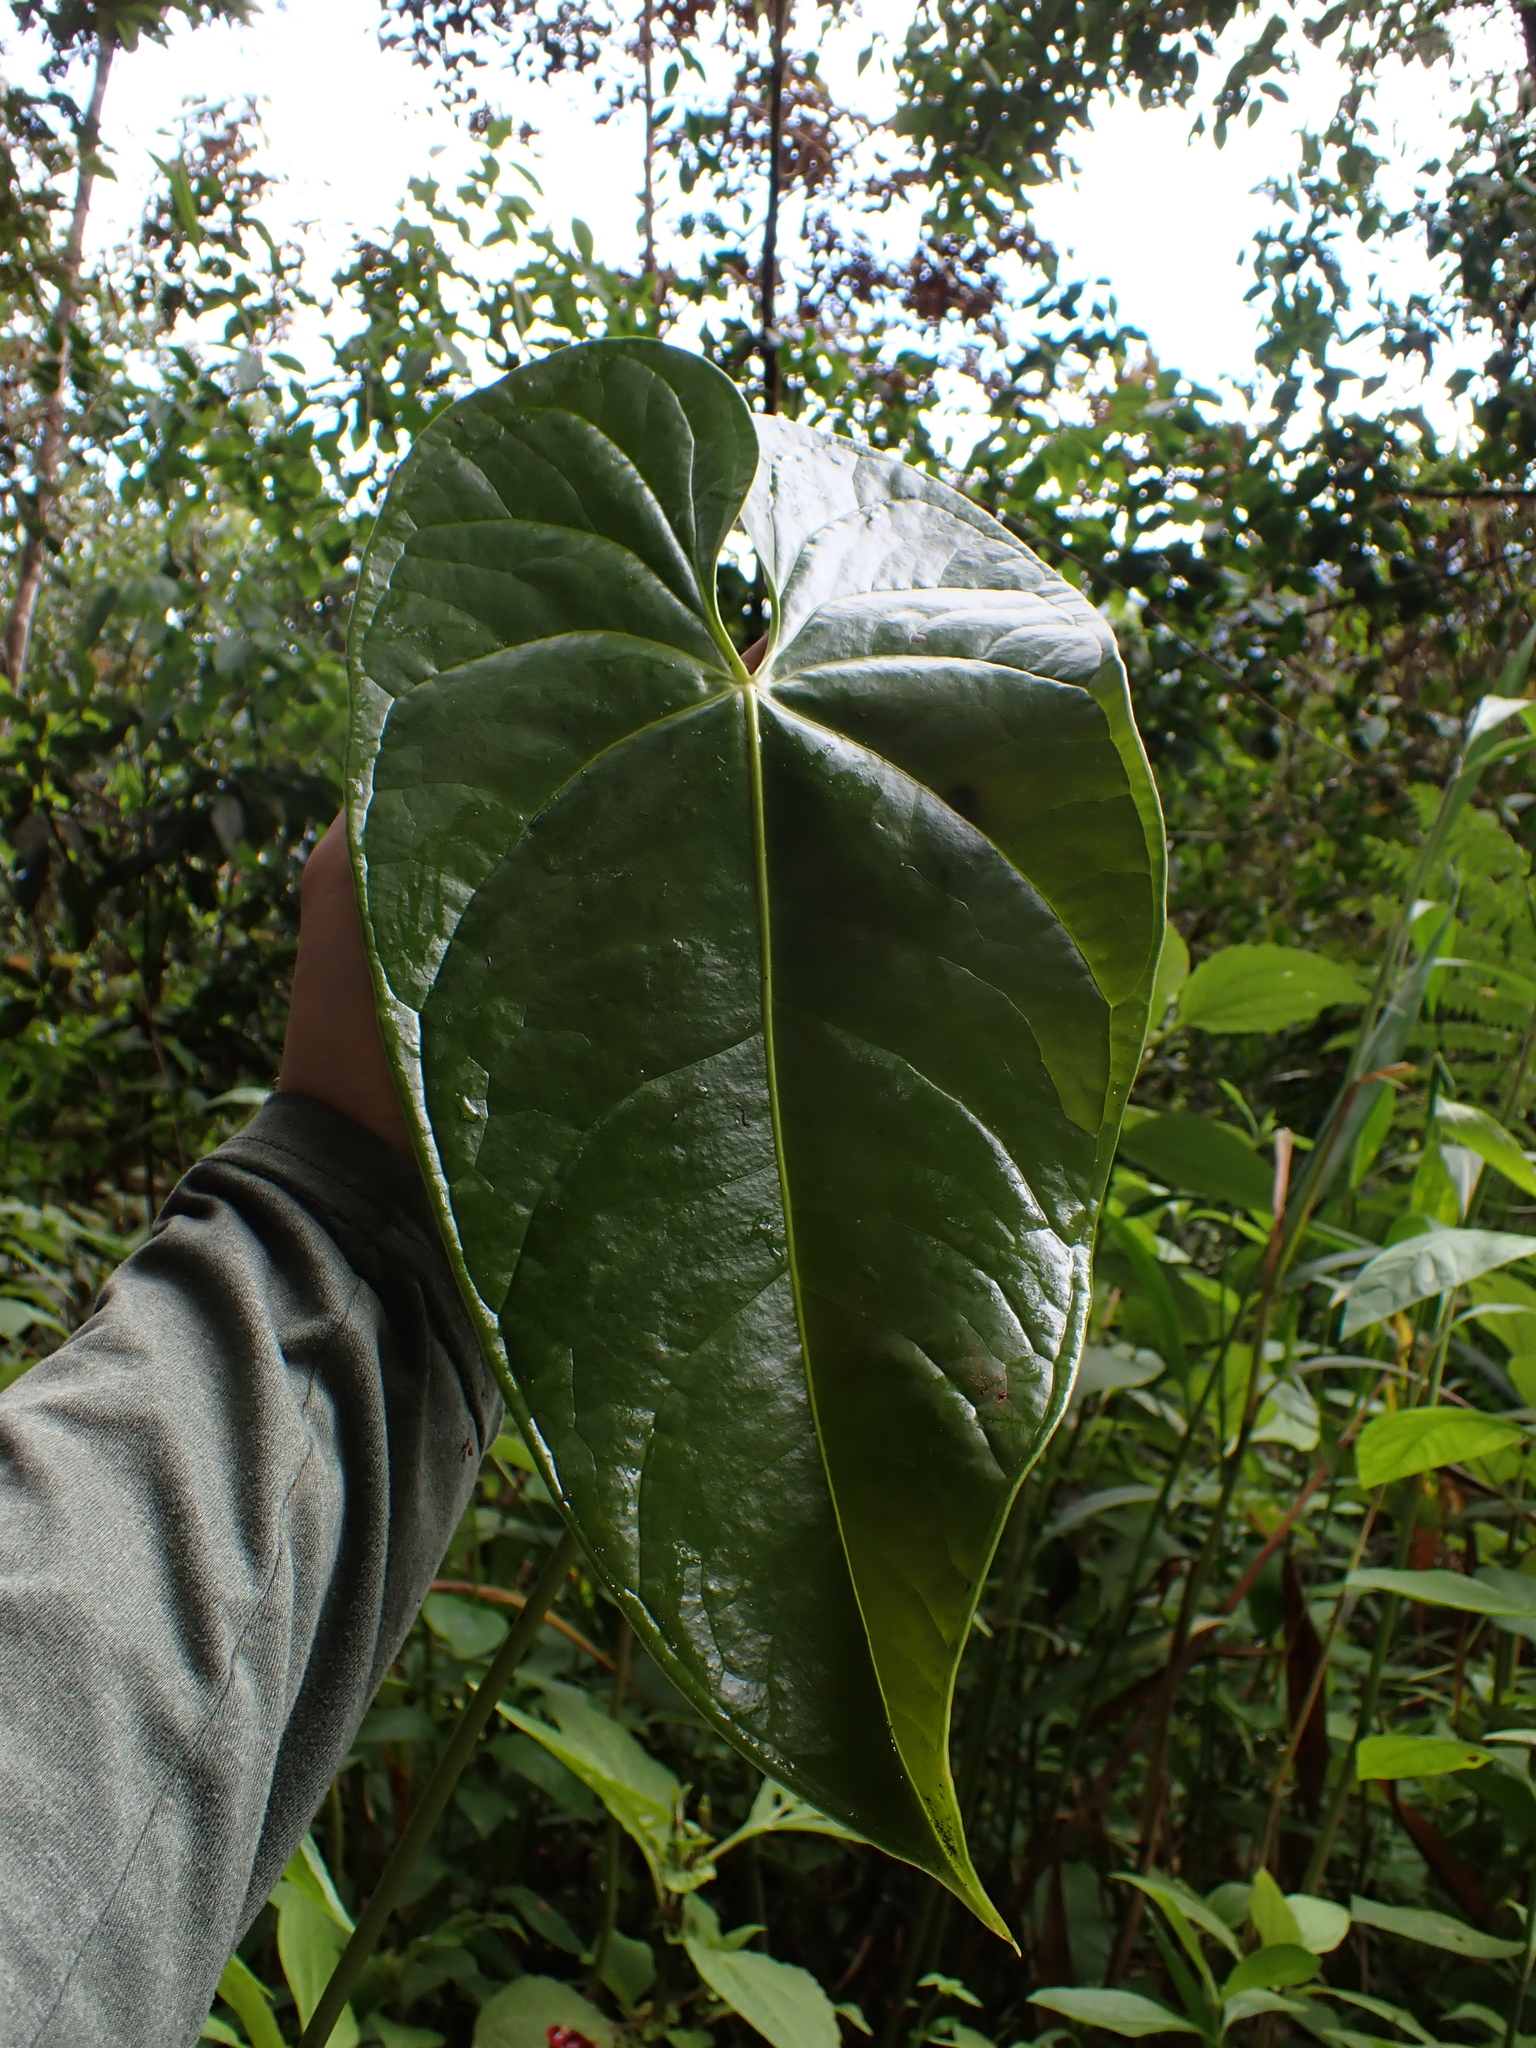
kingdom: Plantae
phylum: Tracheophyta
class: Liliopsida
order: Alismatales
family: Araceae
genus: Anthurium
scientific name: Anthurium andraeanum
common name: Flamingo-flower
